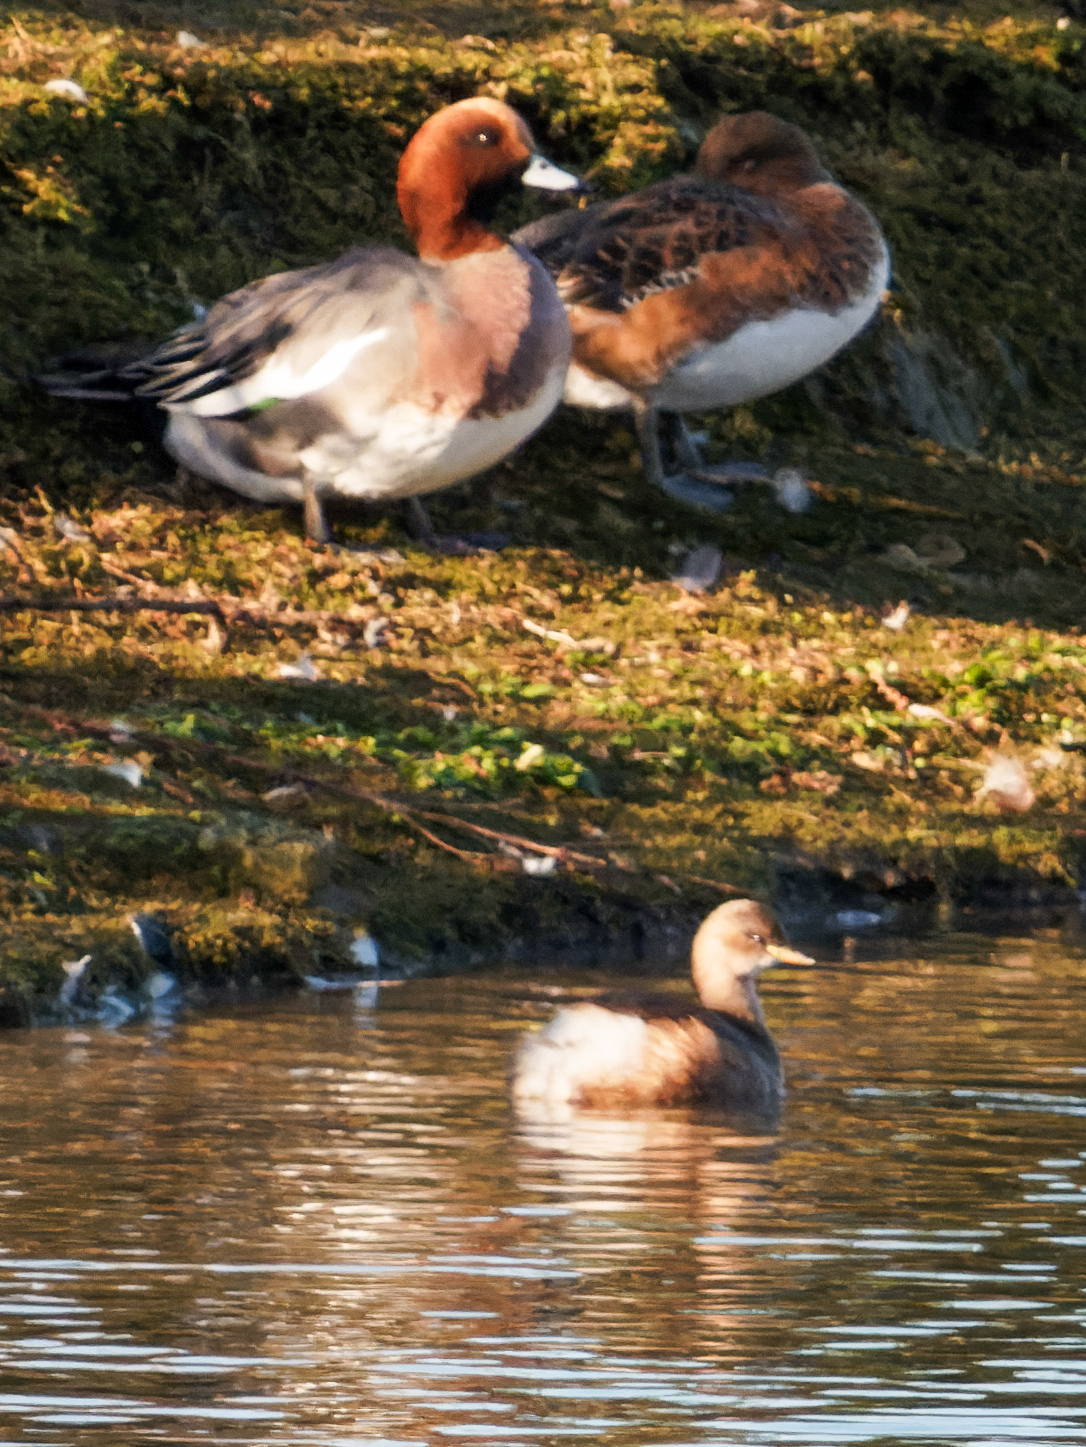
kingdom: Animalia
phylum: Chordata
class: Aves
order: Podicipediformes
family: Podicipedidae
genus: Tachybaptus
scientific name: Tachybaptus ruficollis
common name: Little grebe
